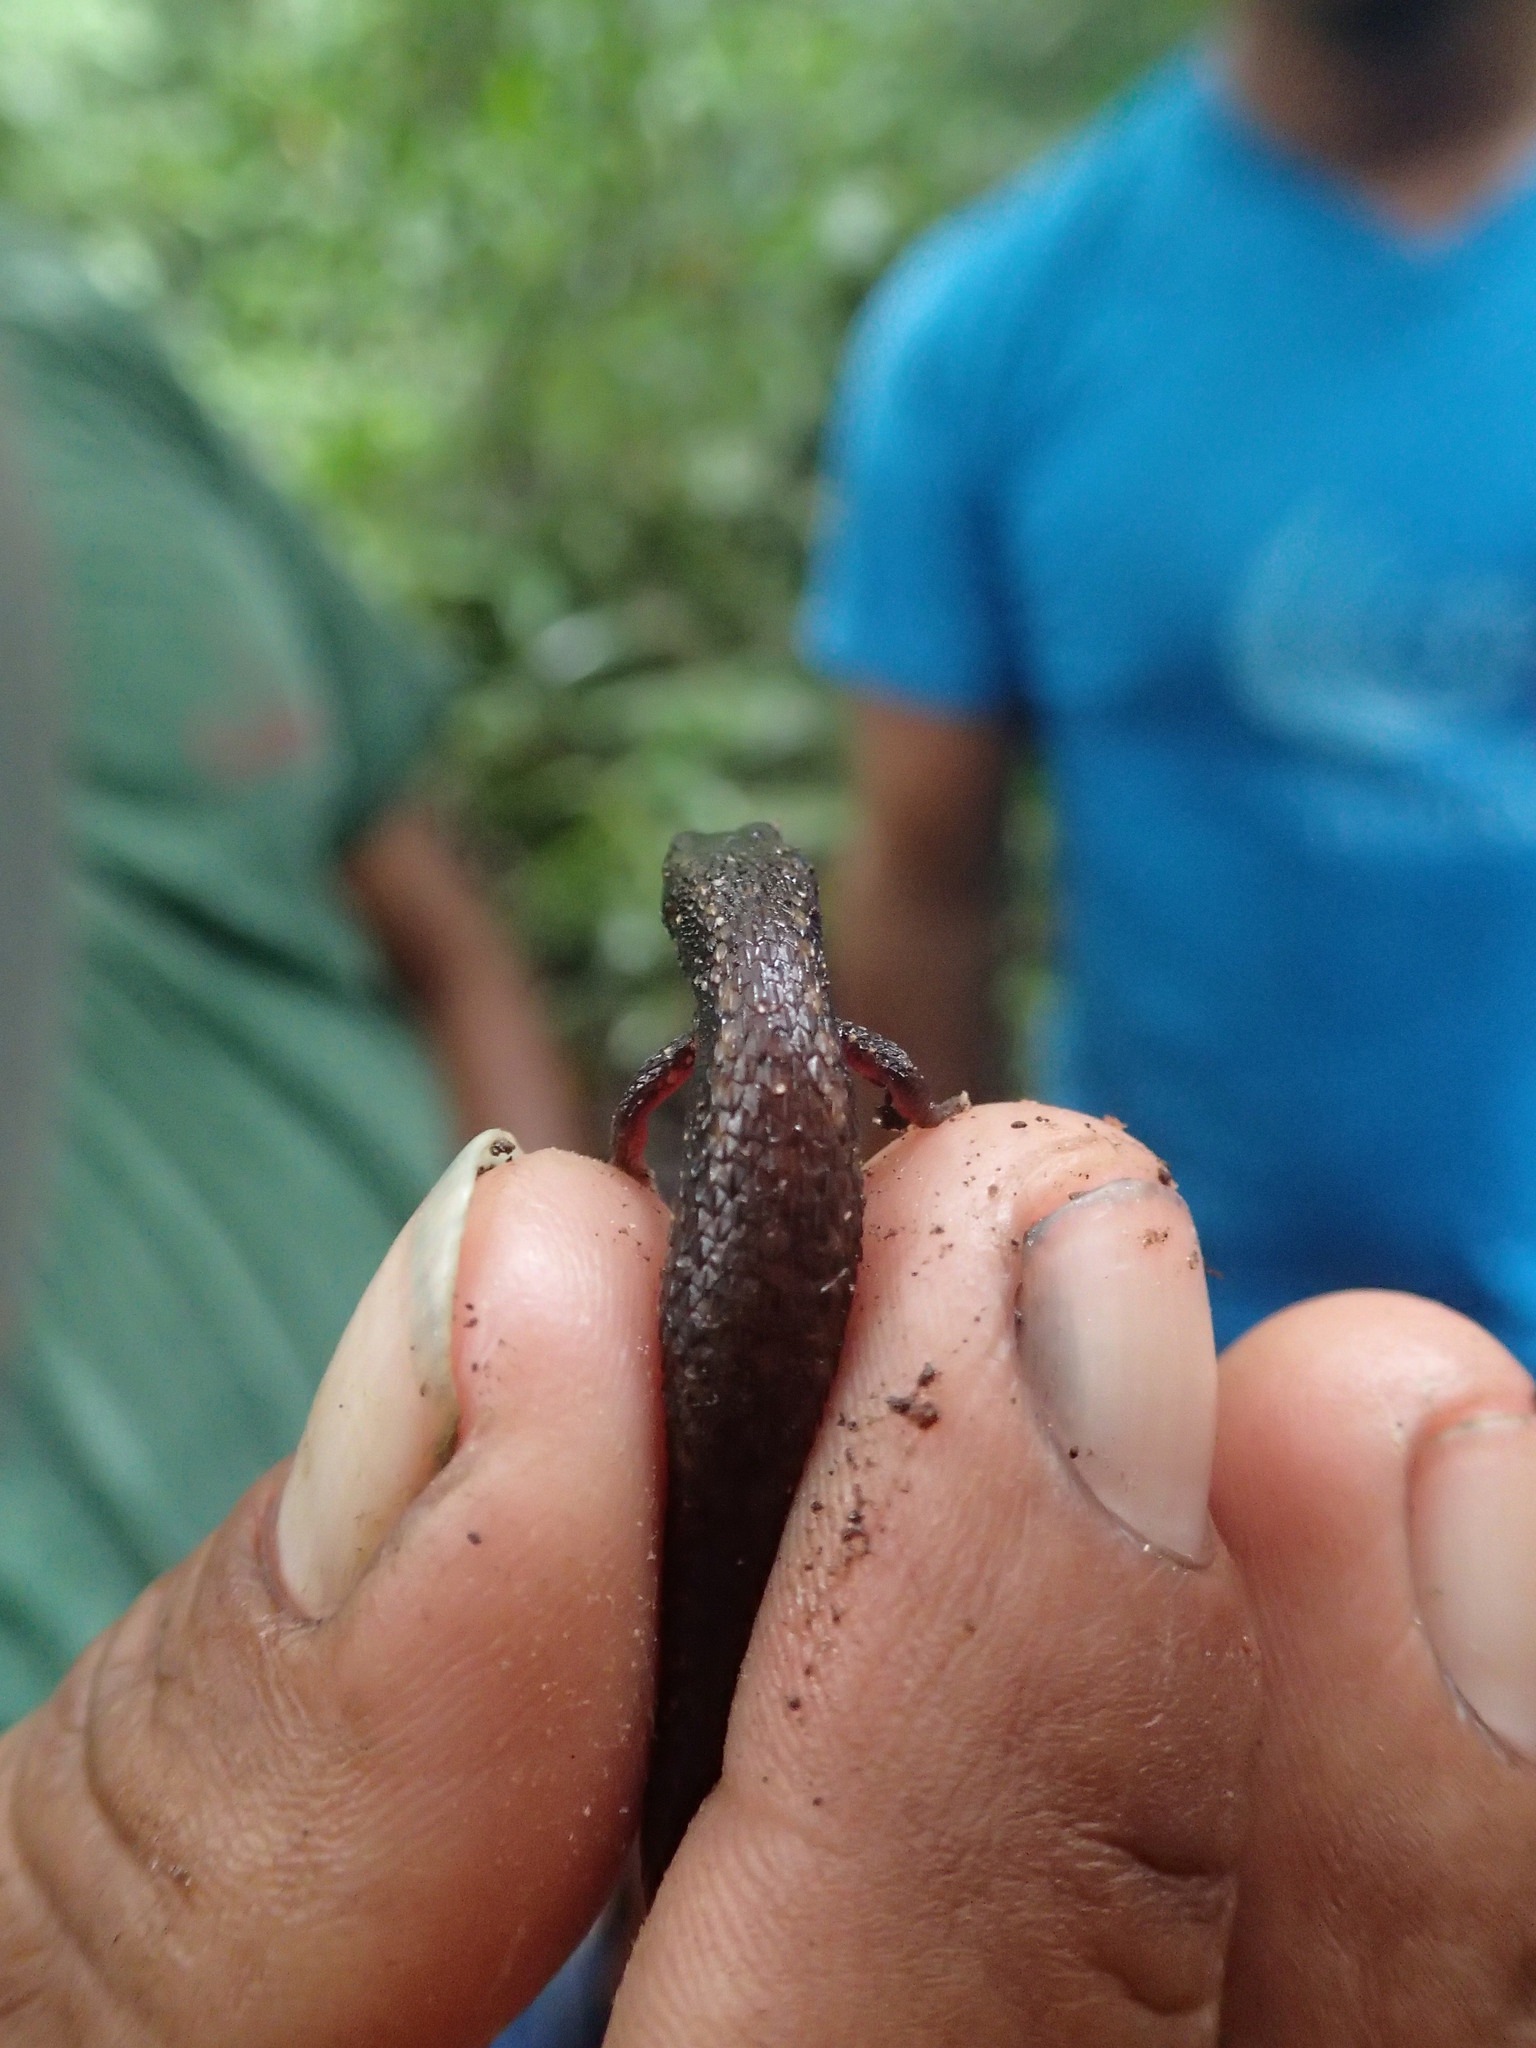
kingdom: Animalia
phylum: Chordata
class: Squamata
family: Gymnophthalmidae
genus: Loxopholis
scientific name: Loxopholis parietalis
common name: Common root lizard
